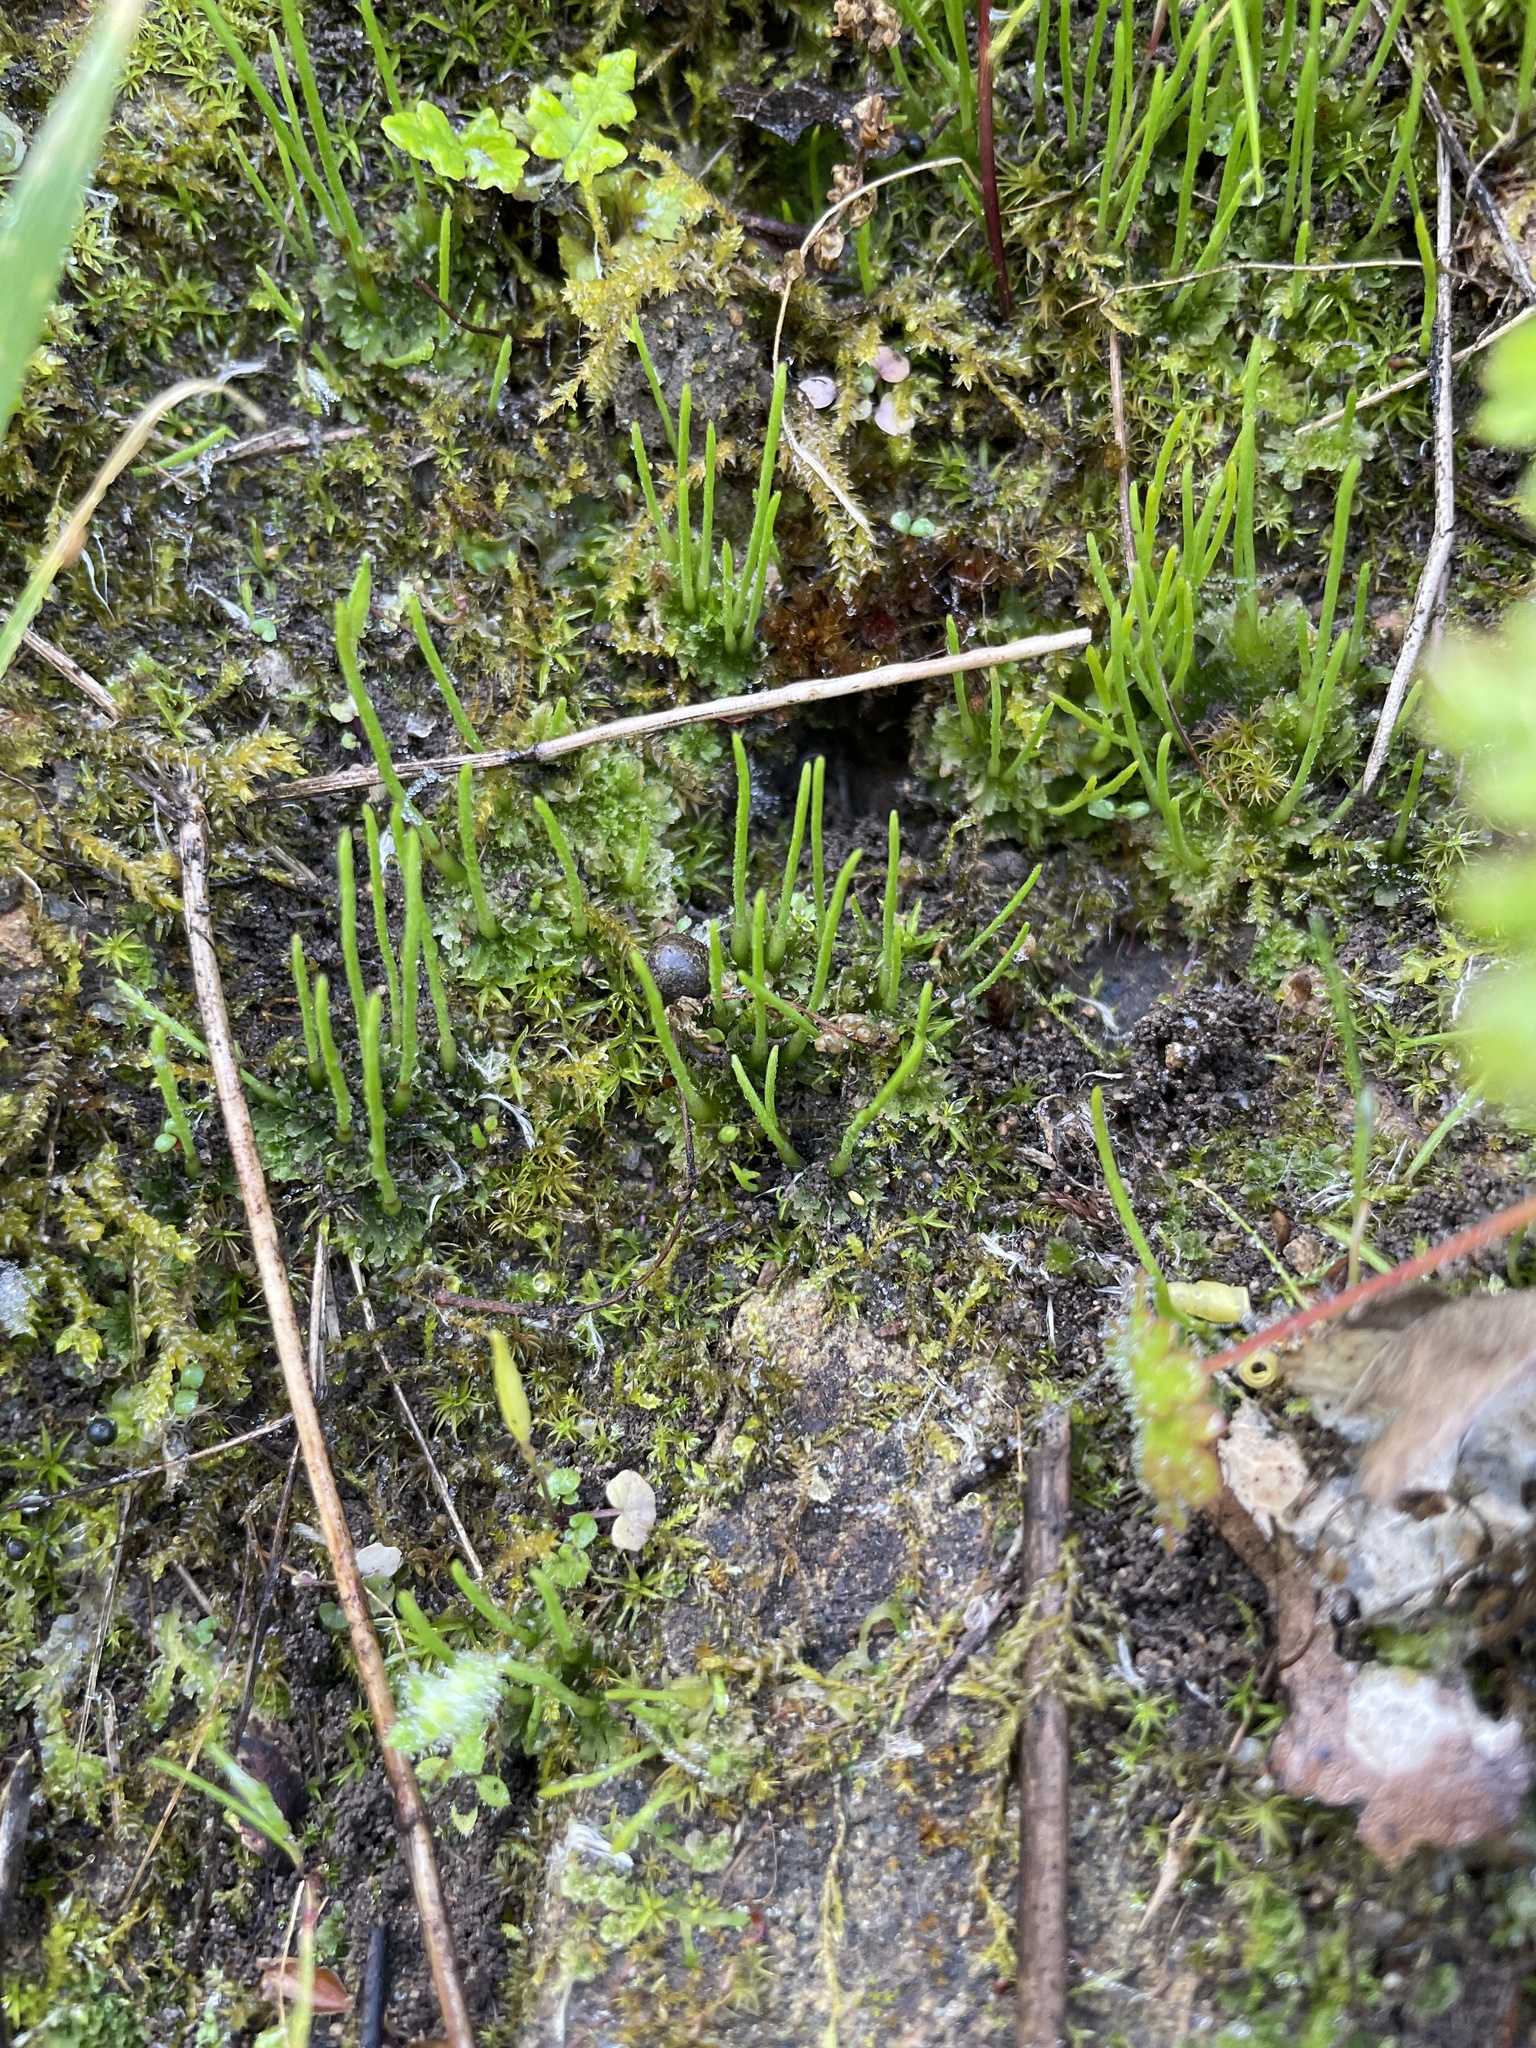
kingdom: Plantae
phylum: Anthocerotophyta
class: Anthocerotopsida
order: Anthocerotales
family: Anthocerotaceae
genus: Anthoceros
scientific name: Anthoceros fusiformis
